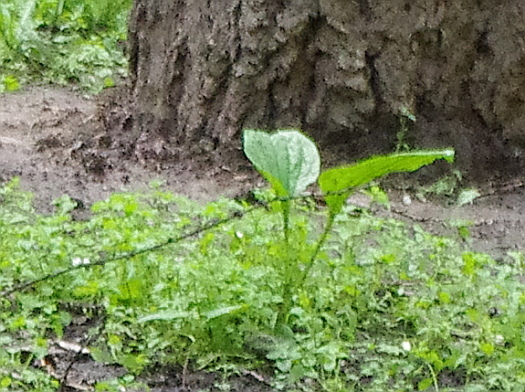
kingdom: Plantae
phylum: Tracheophyta
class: Magnoliopsida
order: Lamiales
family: Plantaginaceae
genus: Plantago
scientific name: Plantago major
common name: Common plantain
